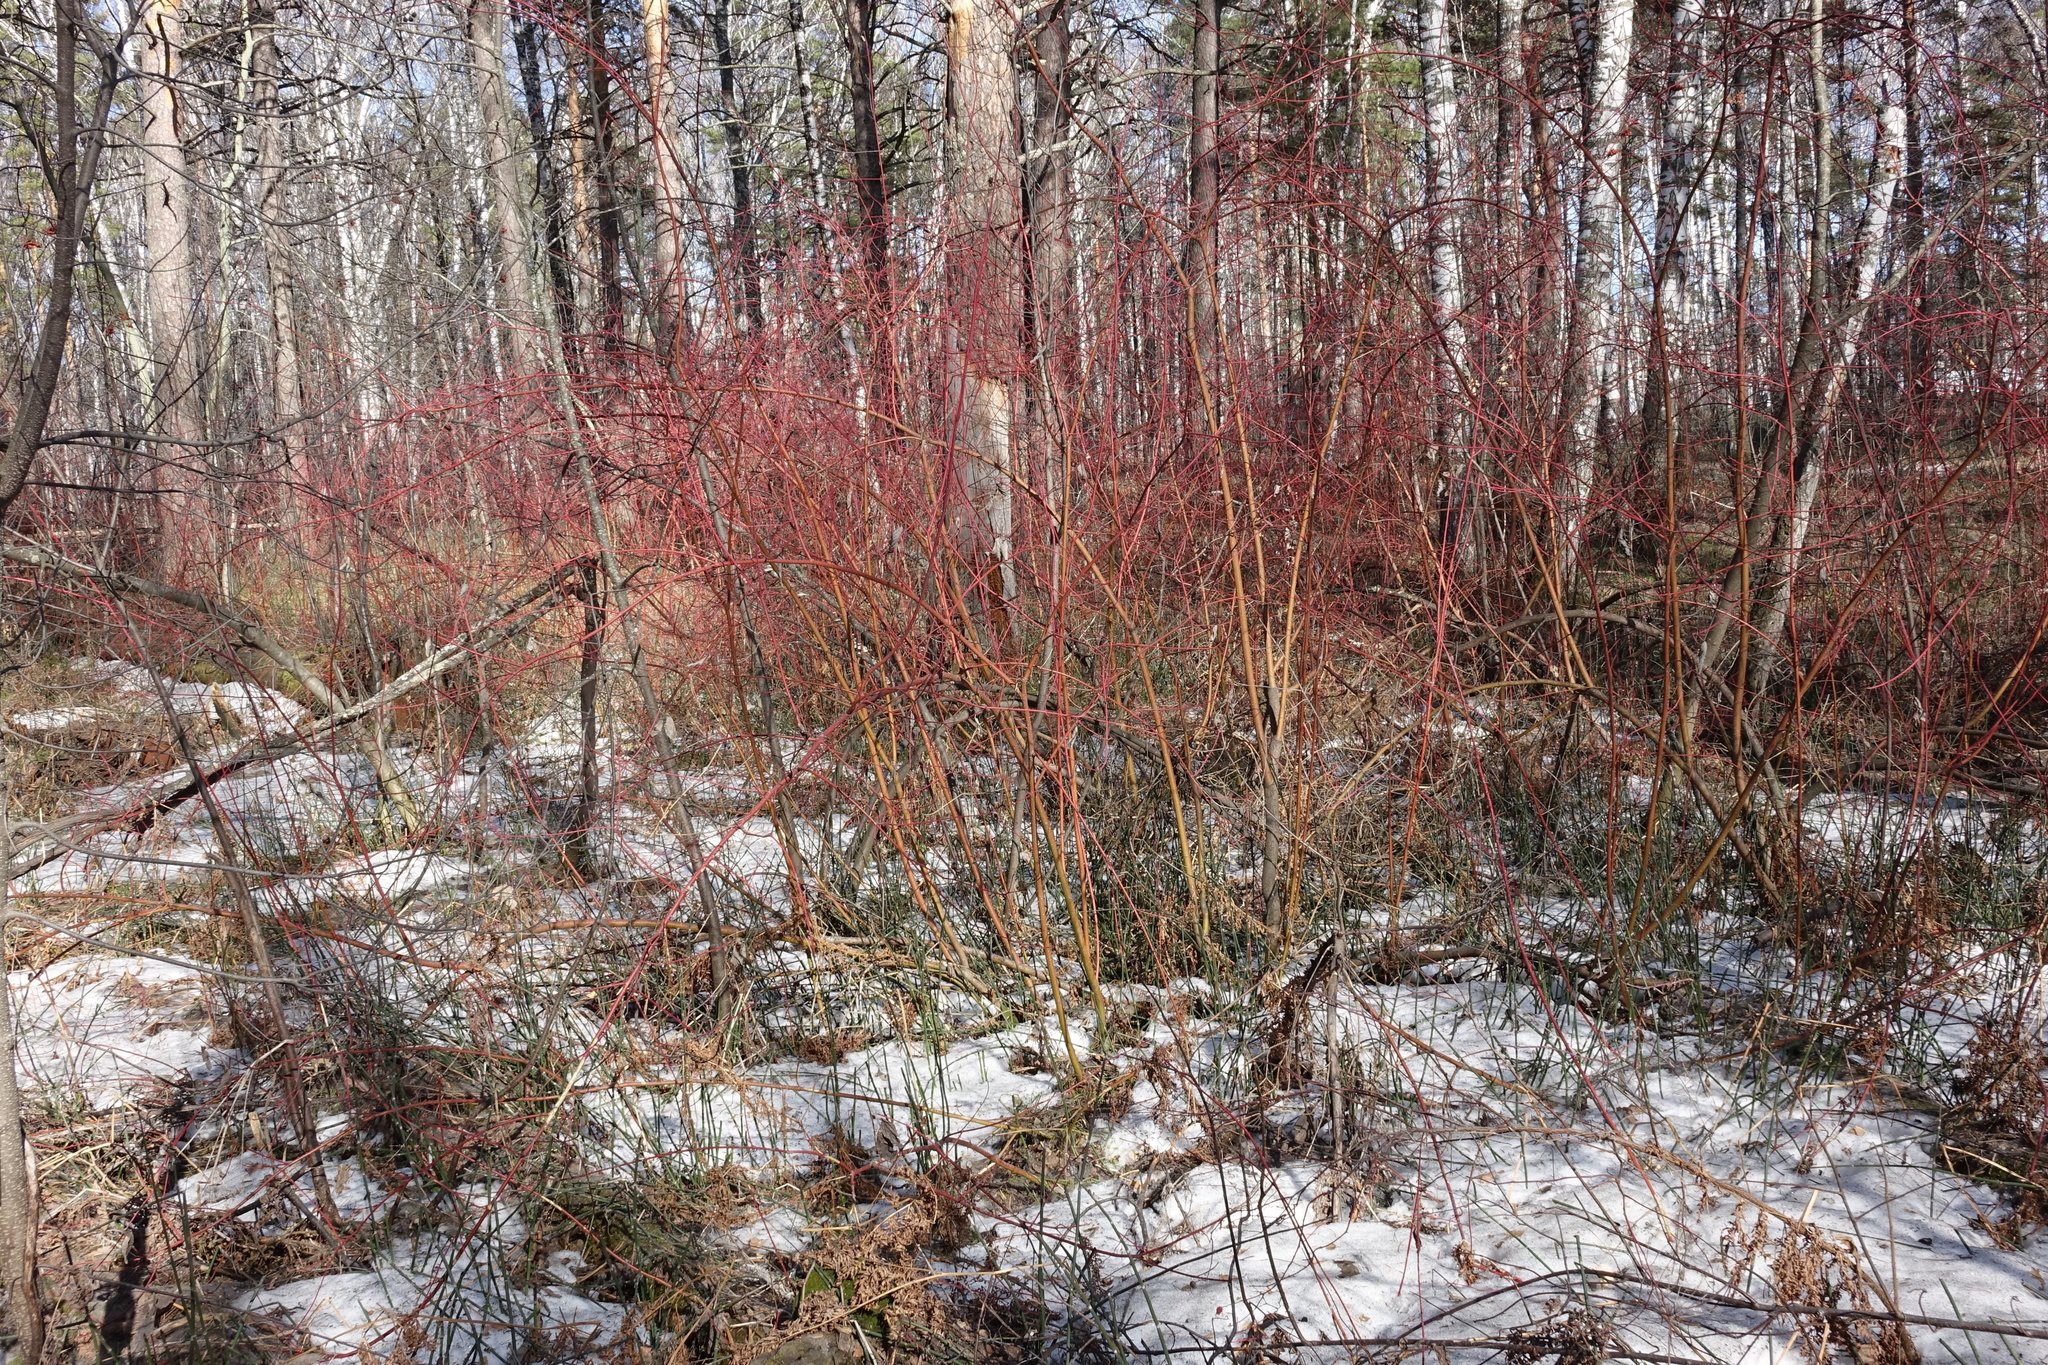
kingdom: Plantae
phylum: Tracheophyta
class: Magnoliopsida
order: Cornales
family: Cornaceae
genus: Cornus
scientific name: Cornus alba
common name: White dogwood
